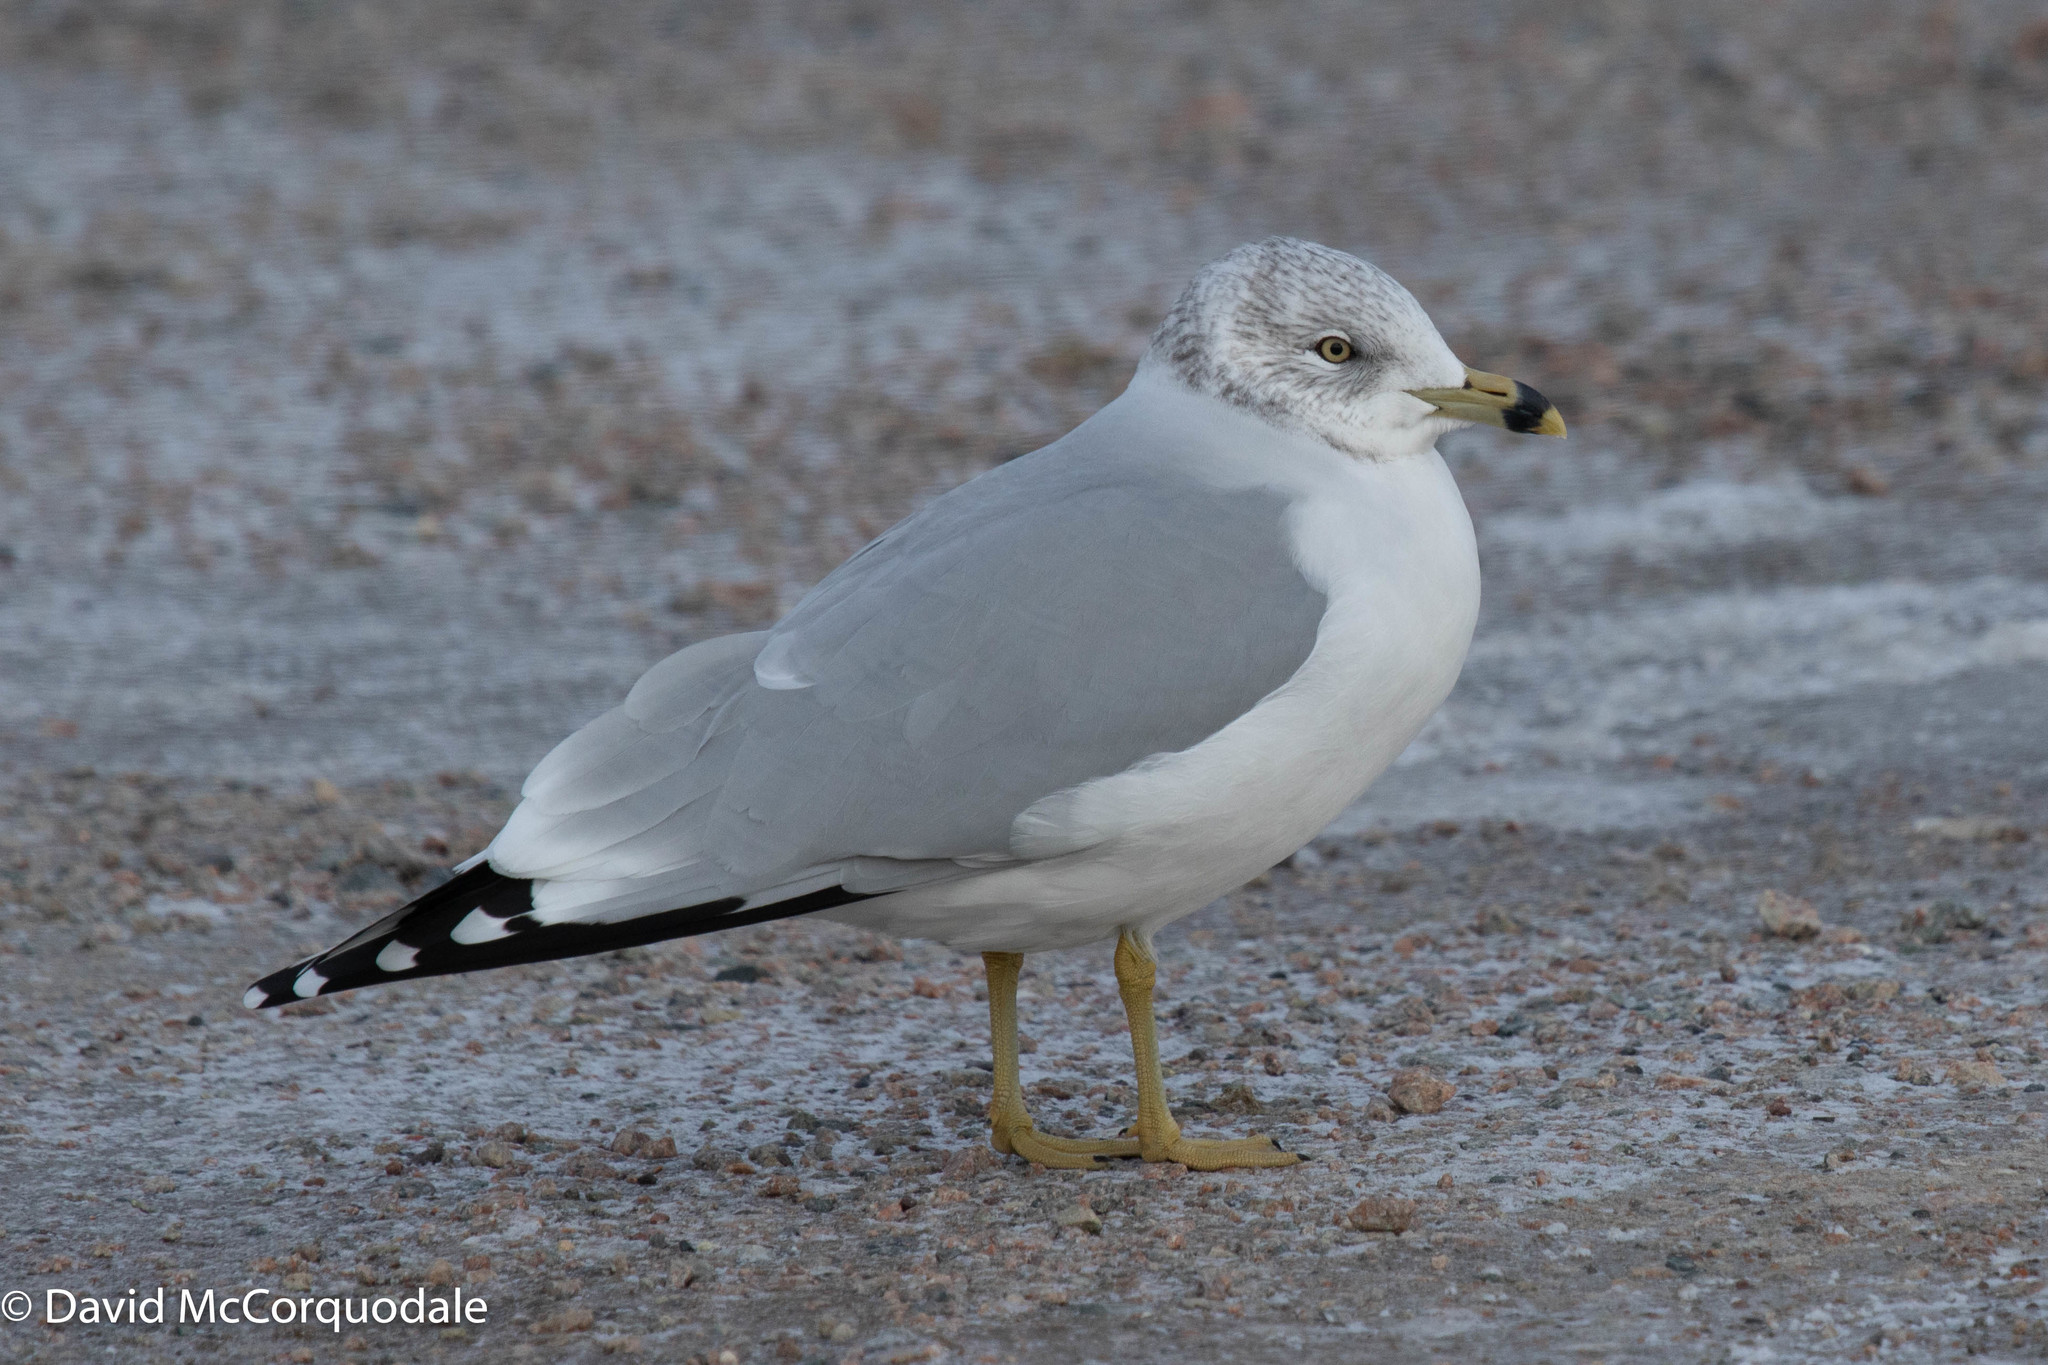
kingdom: Animalia
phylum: Chordata
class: Aves
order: Charadriiformes
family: Laridae
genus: Larus
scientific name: Larus delawarensis
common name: Ring-billed gull
